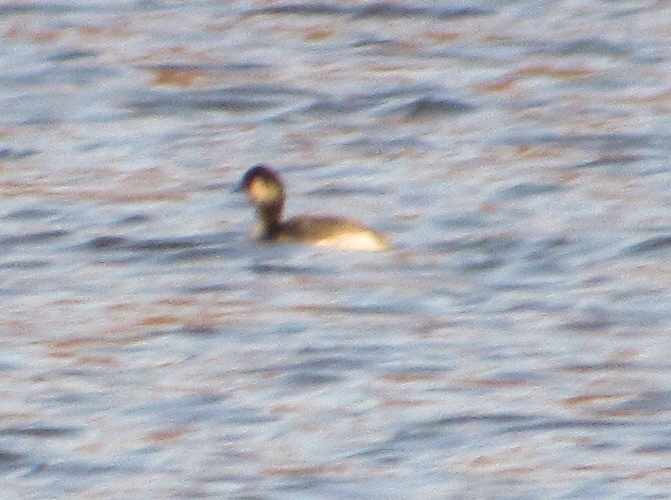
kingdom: Animalia
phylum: Chordata
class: Aves
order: Podicipediformes
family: Podicipedidae
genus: Podilymbus
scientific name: Podilymbus podiceps
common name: Pied-billed grebe
